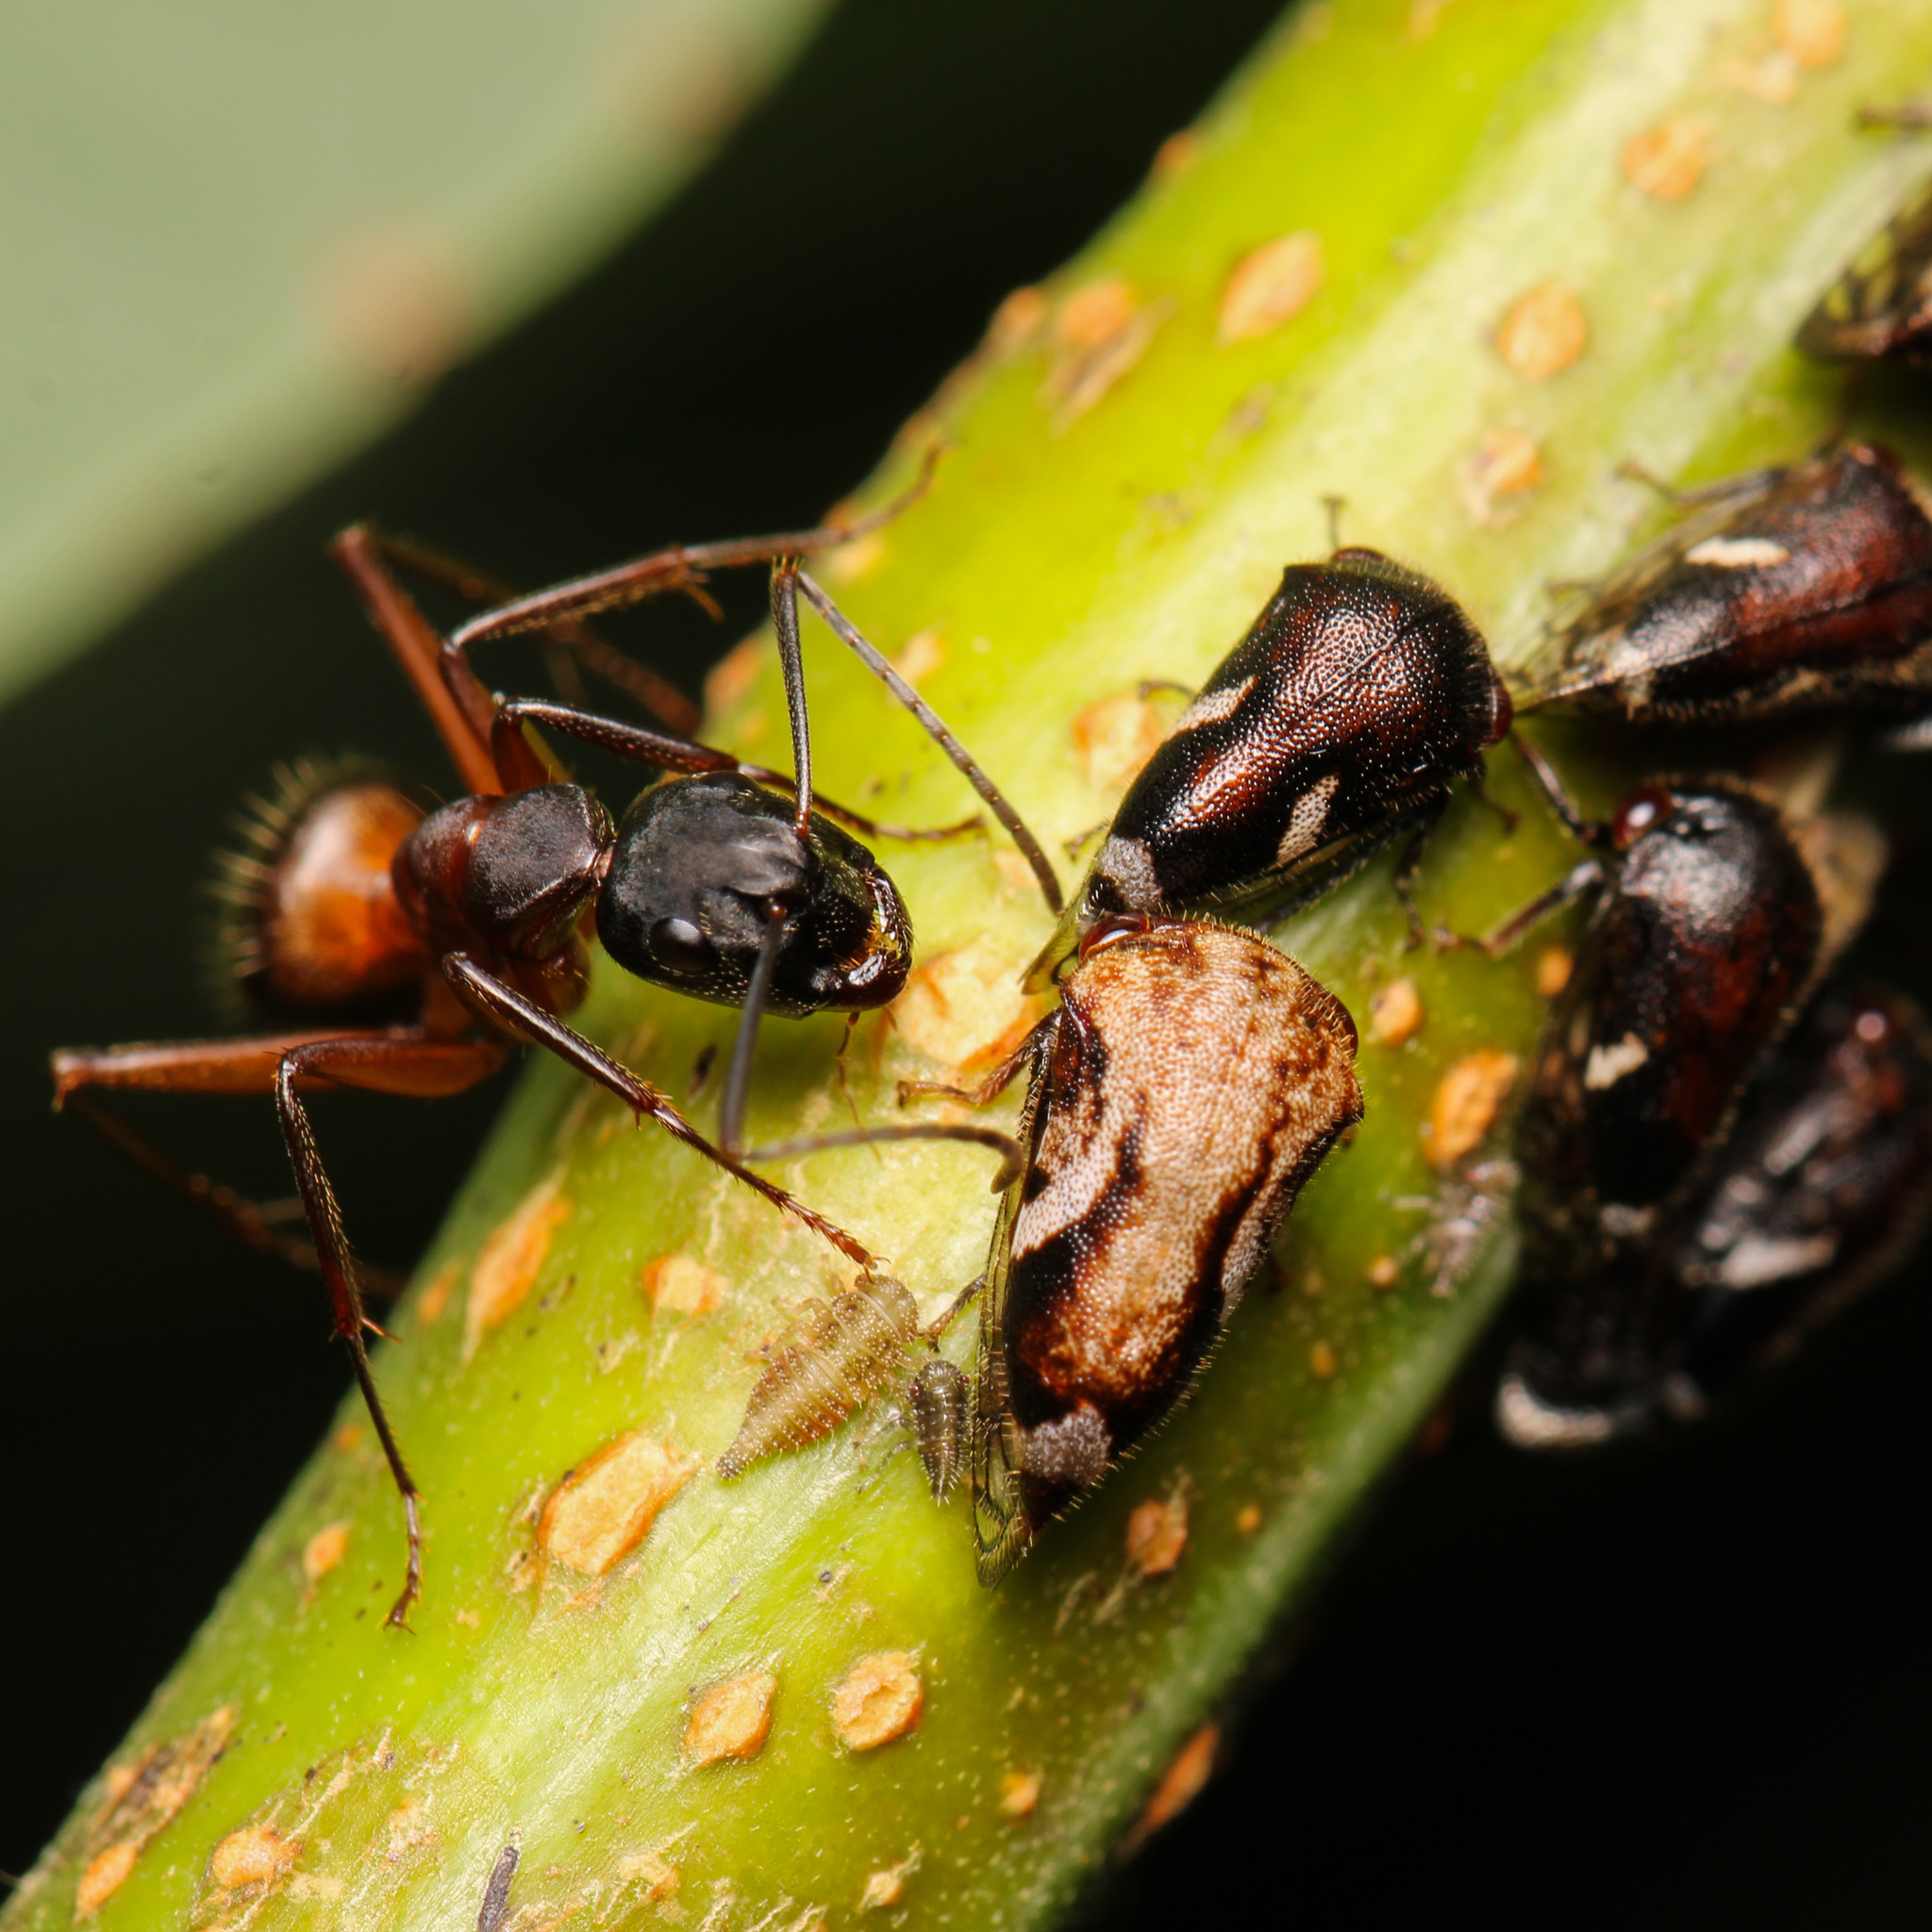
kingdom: Animalia
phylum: Arthropoda
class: Insecta
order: Hymenoptera
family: Formicidae
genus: Camponotus
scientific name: Camponotus chromaiodes
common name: Red carpenter ant
